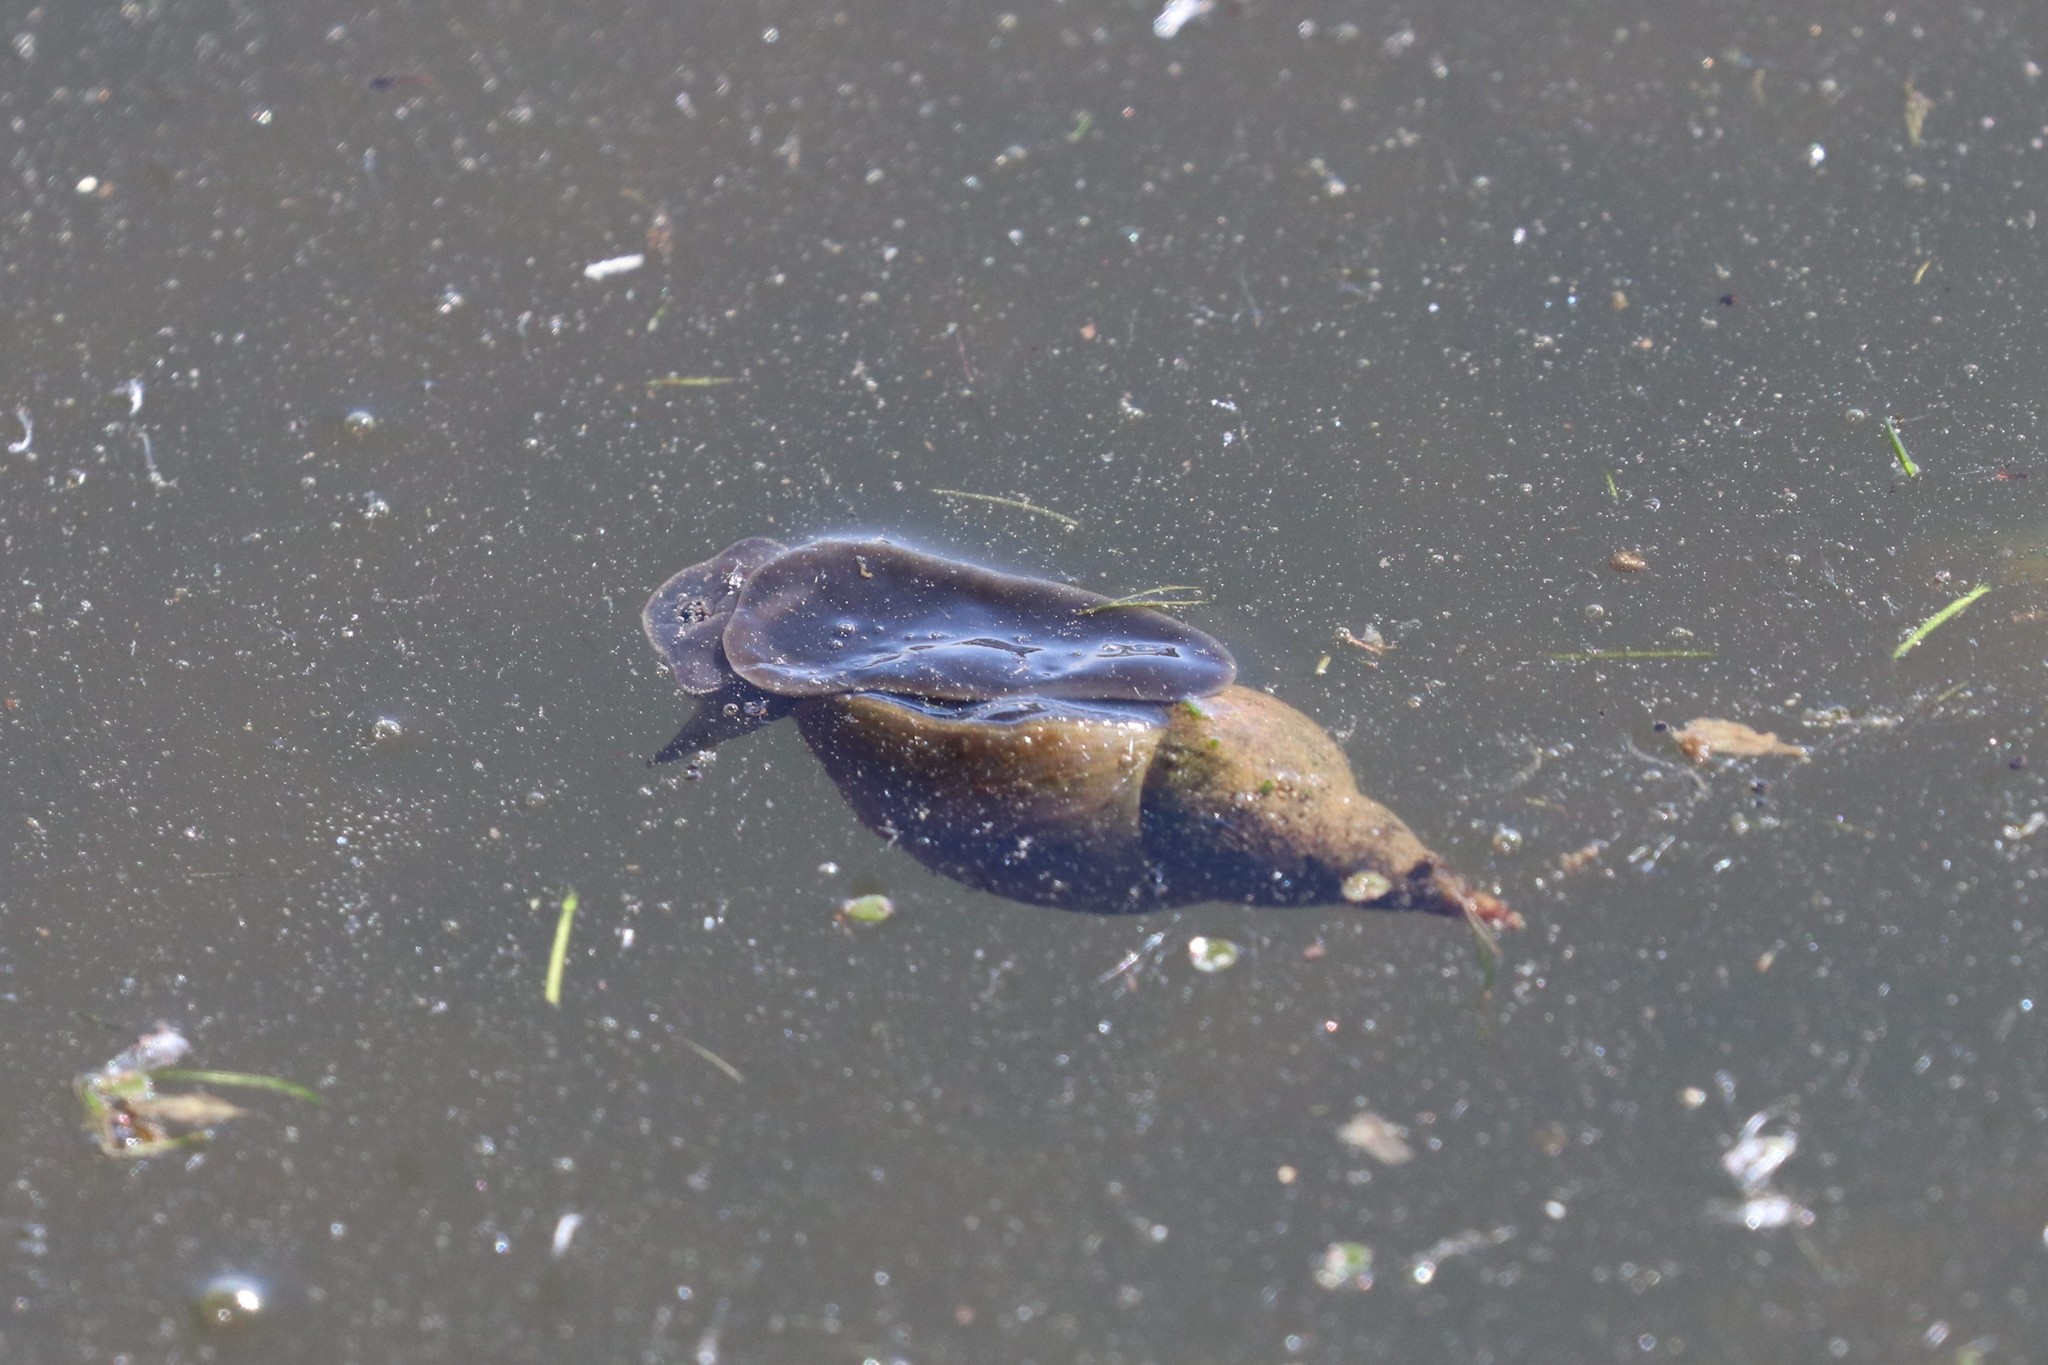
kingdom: Animalia
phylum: Mollusca
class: Gastropoda
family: Lymnaeidae
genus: Lymnaea
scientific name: Lymnaea stagnalis
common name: Great pond snail
